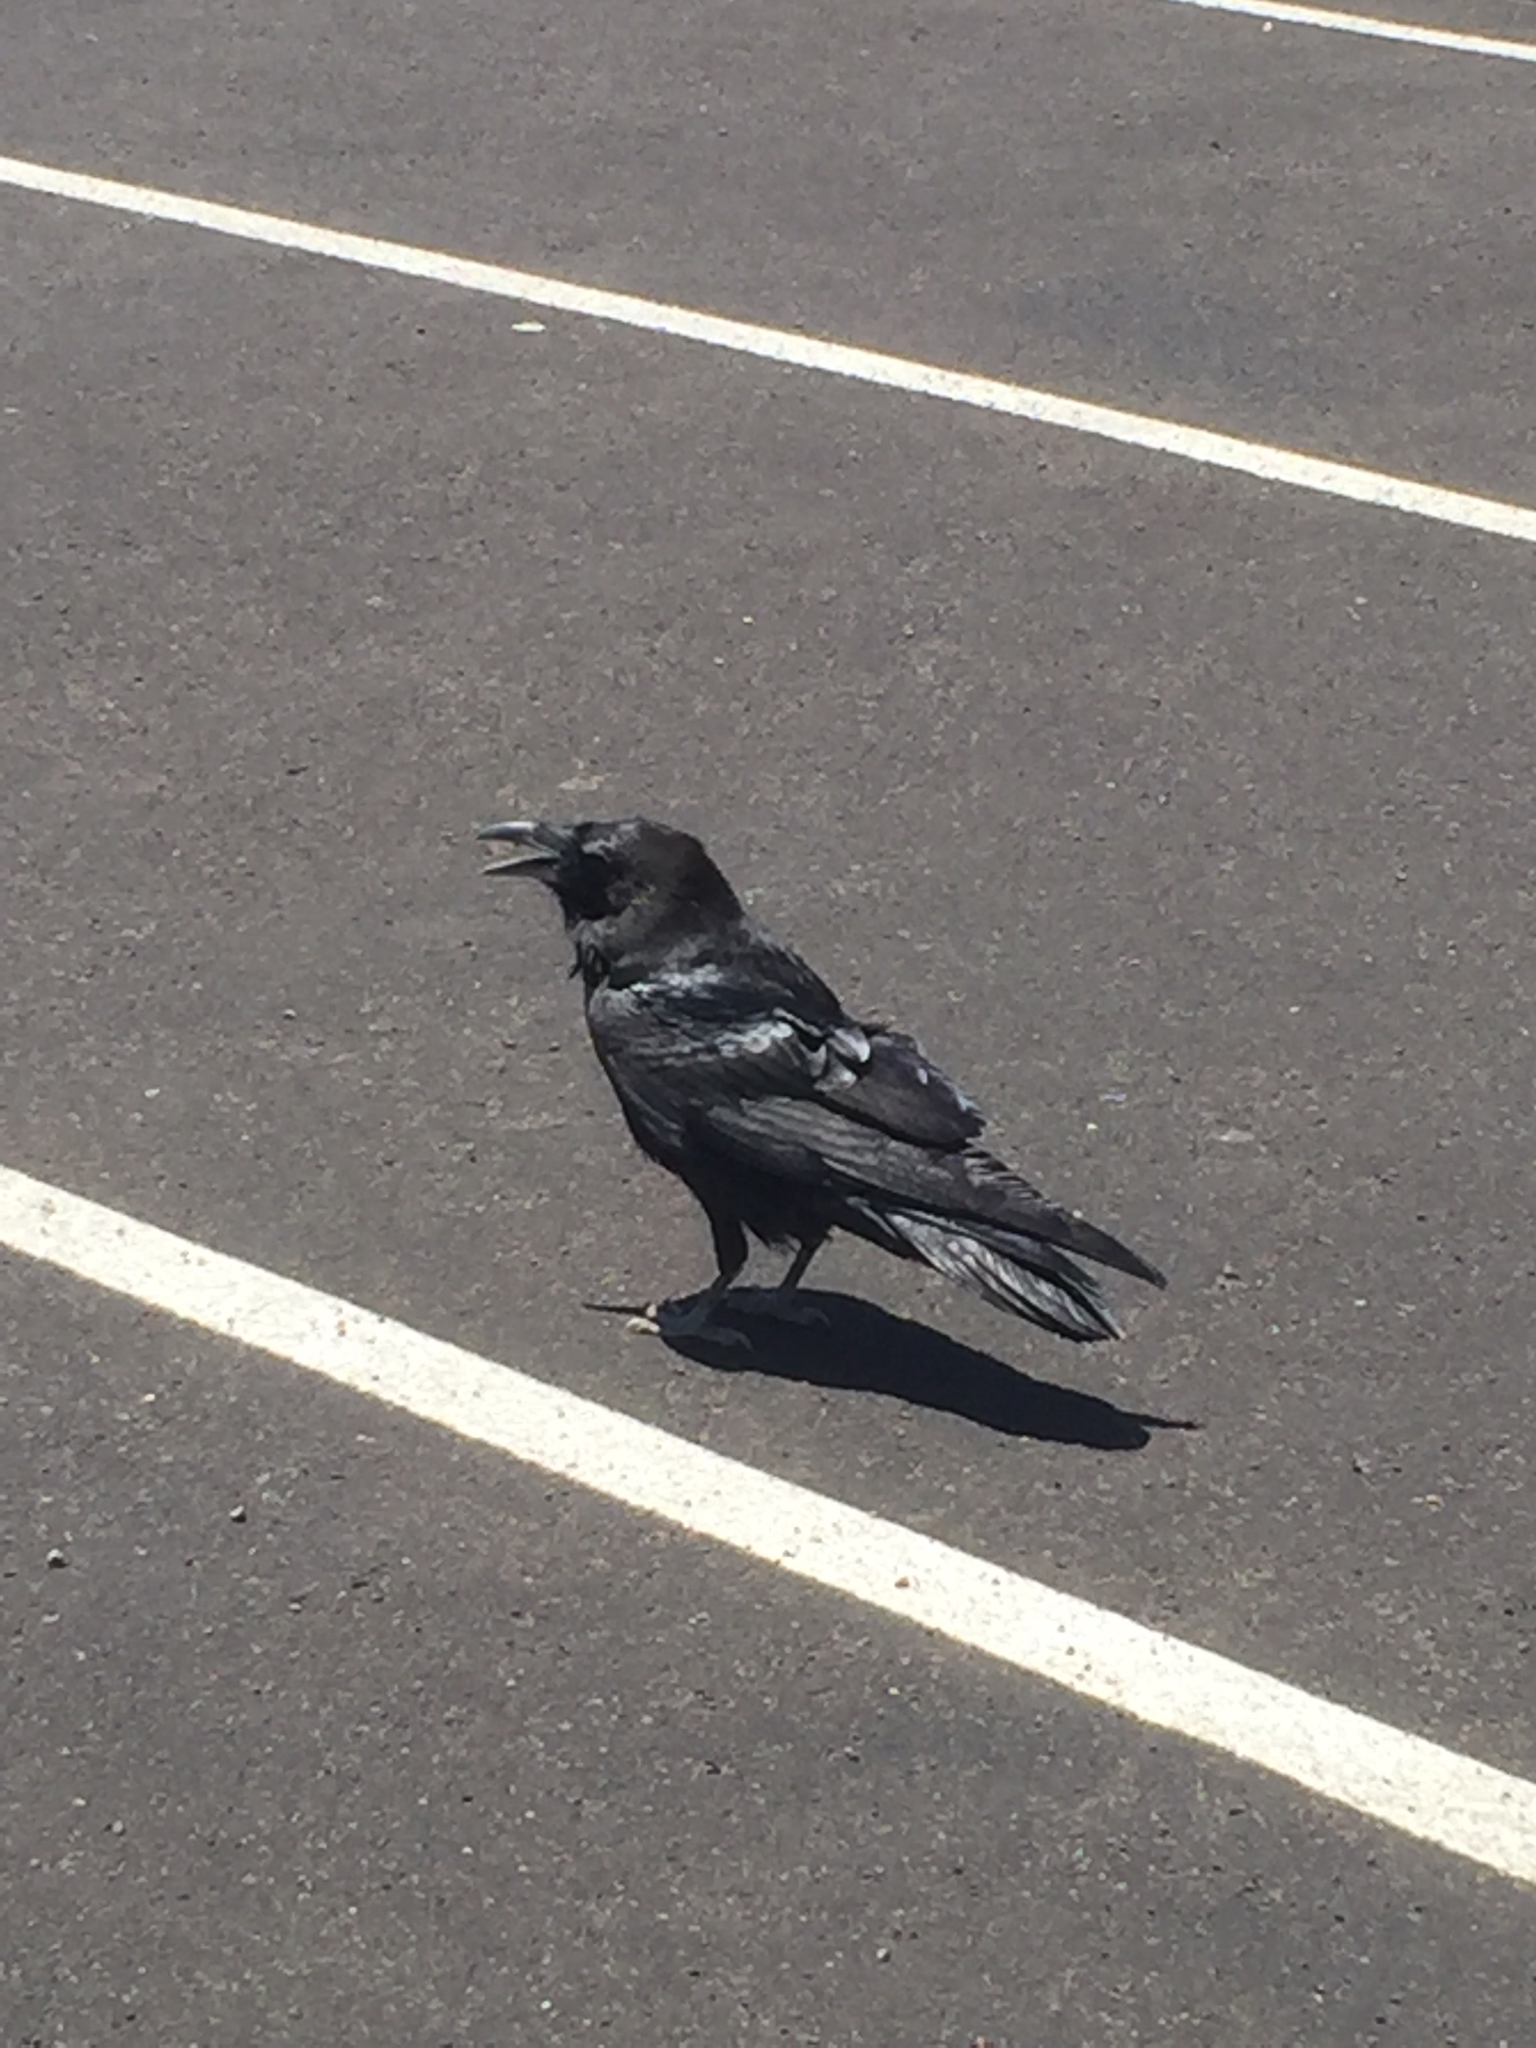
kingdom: Animalia
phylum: Chordata
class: Aves
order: Passeriformes
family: Corvidae
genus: Corvus
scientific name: Corvus corax
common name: Common raven
